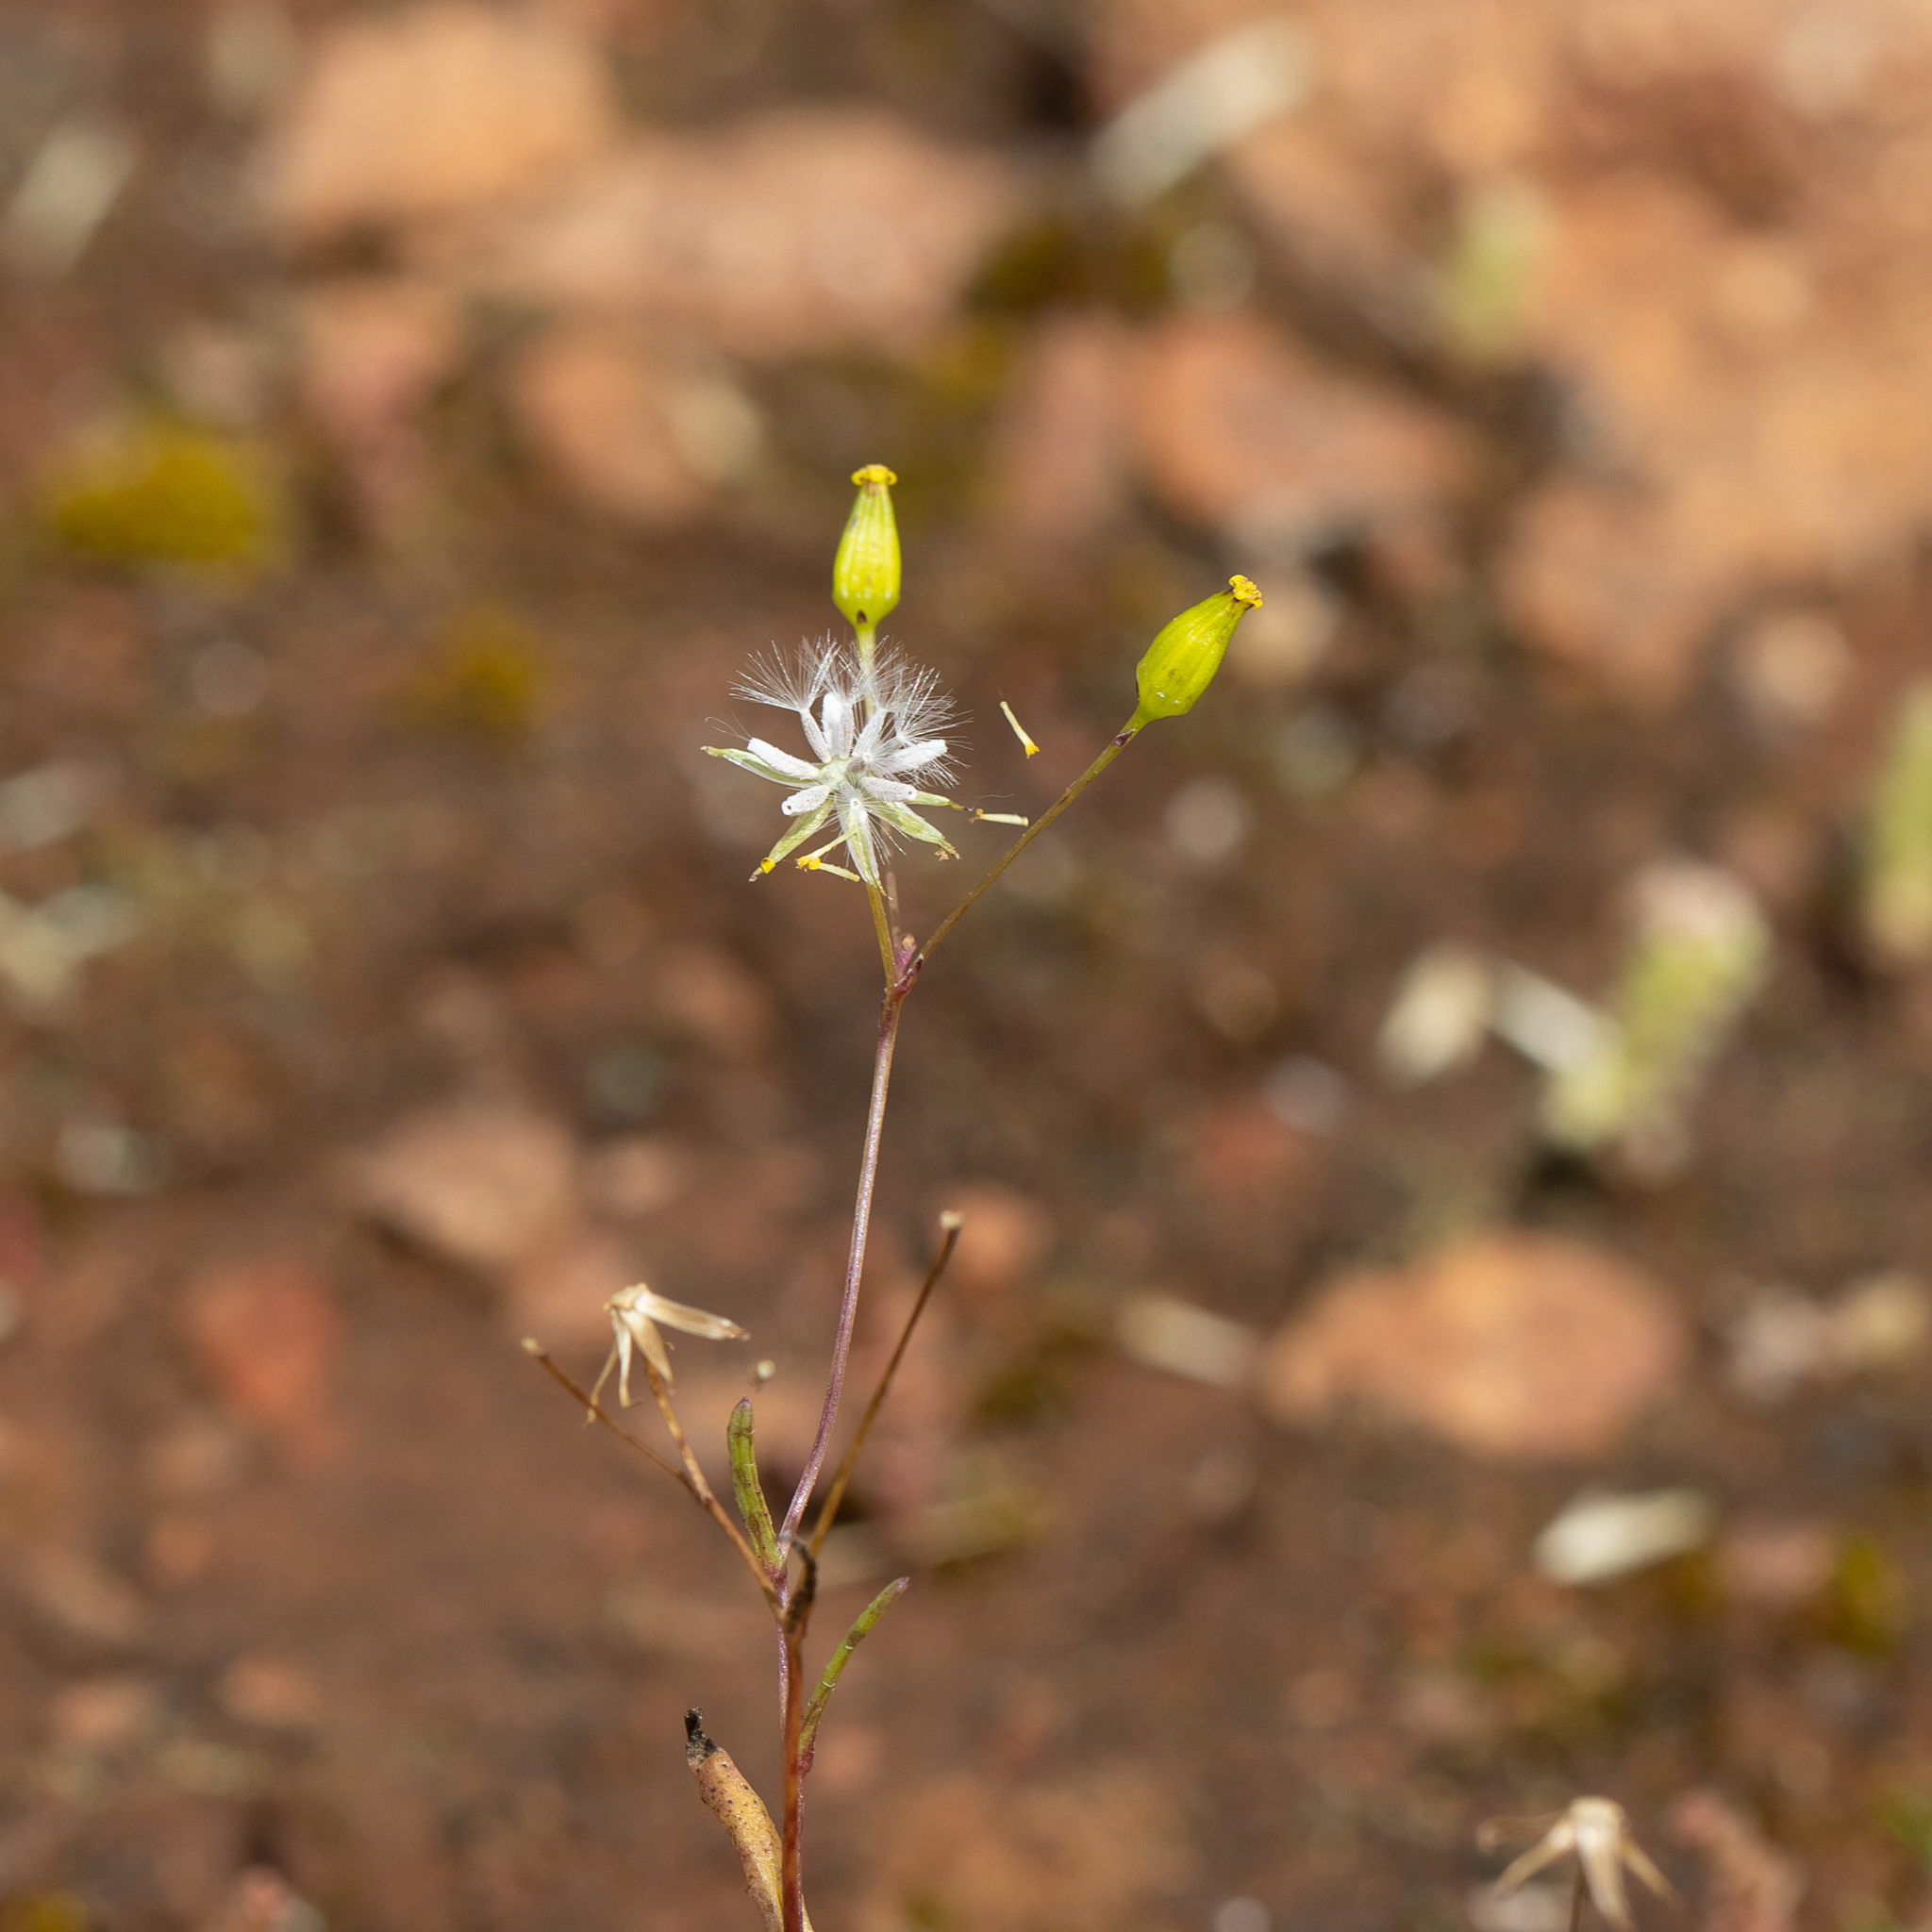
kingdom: Plantae
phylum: Tracheophyta
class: Magnoliopsida
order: Asterales
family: Asteraceae
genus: Senecio
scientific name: Senecio glossanthus
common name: Slender groundsel
